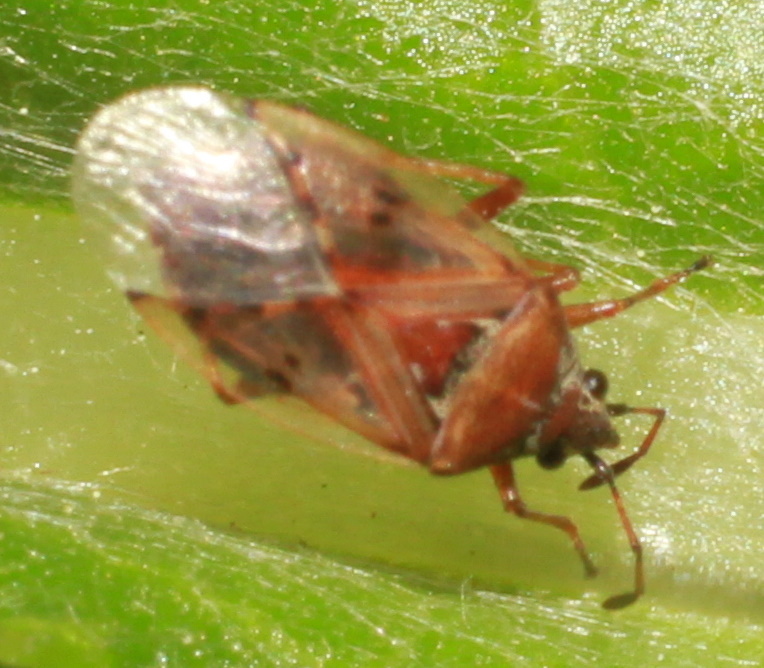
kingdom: Animalia
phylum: Arthropoda
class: Insecta
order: Hemiptera
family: Lygaeidae
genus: Kleidocerys
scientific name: Kleidocerys resedae
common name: Birch catkin bug
